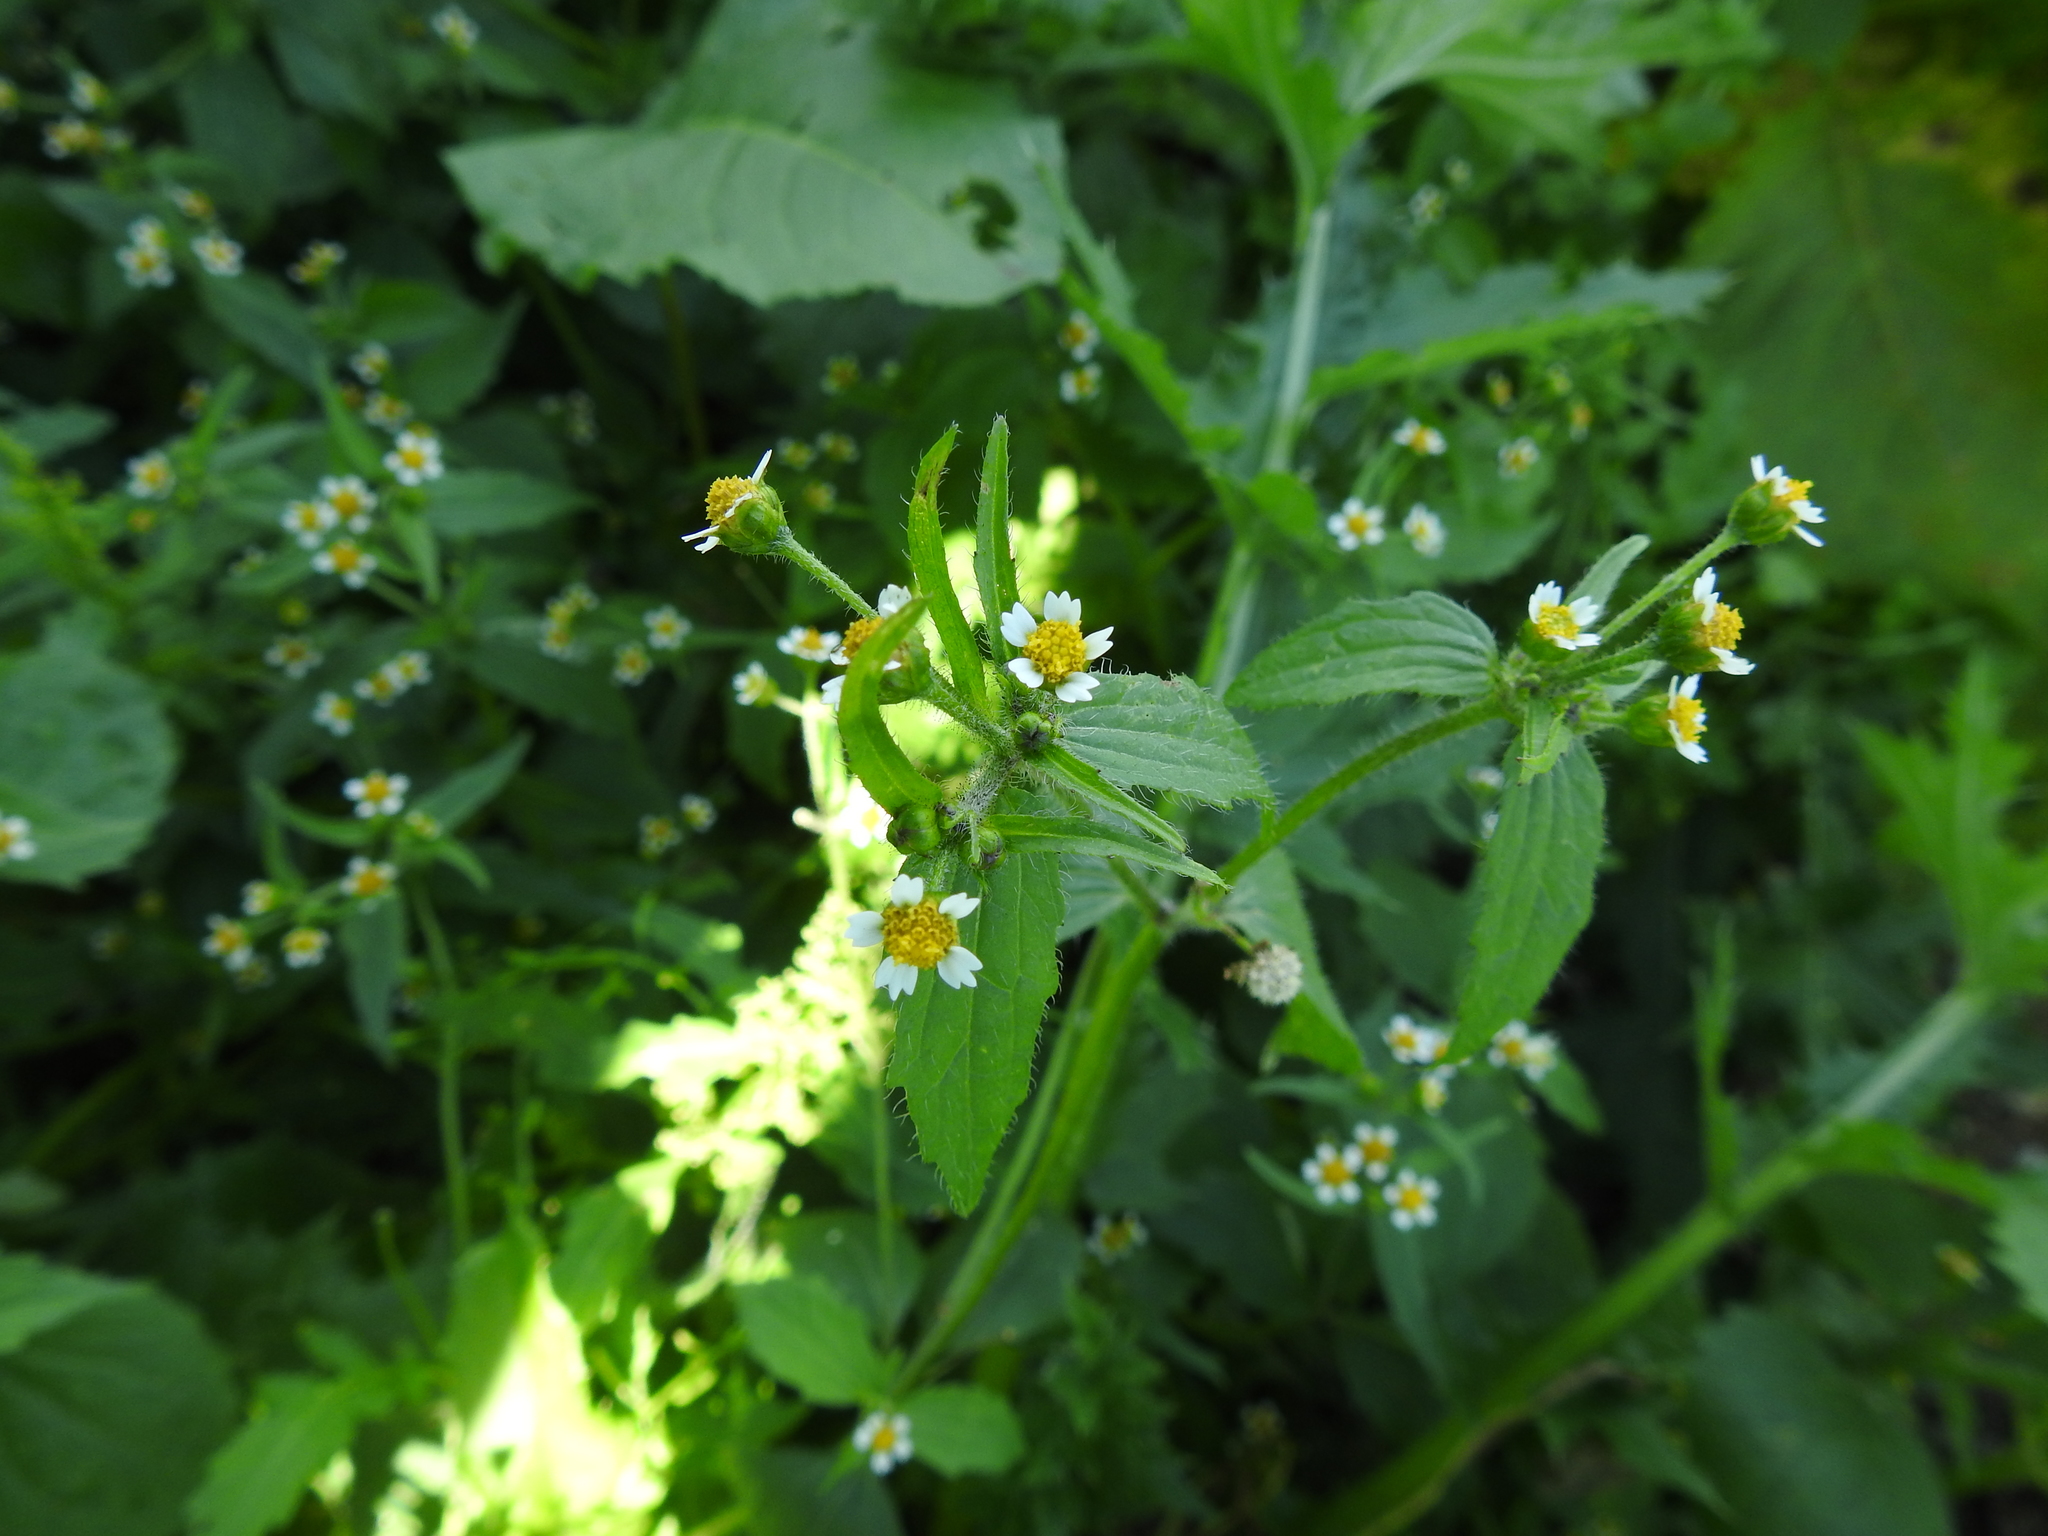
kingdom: Plantae
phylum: Tracheophyta
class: Magnoliopsida
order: Asterales
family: Asteraceae
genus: Galinsoga
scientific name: Galinsoga quadriradiata
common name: Shaggy soldier
